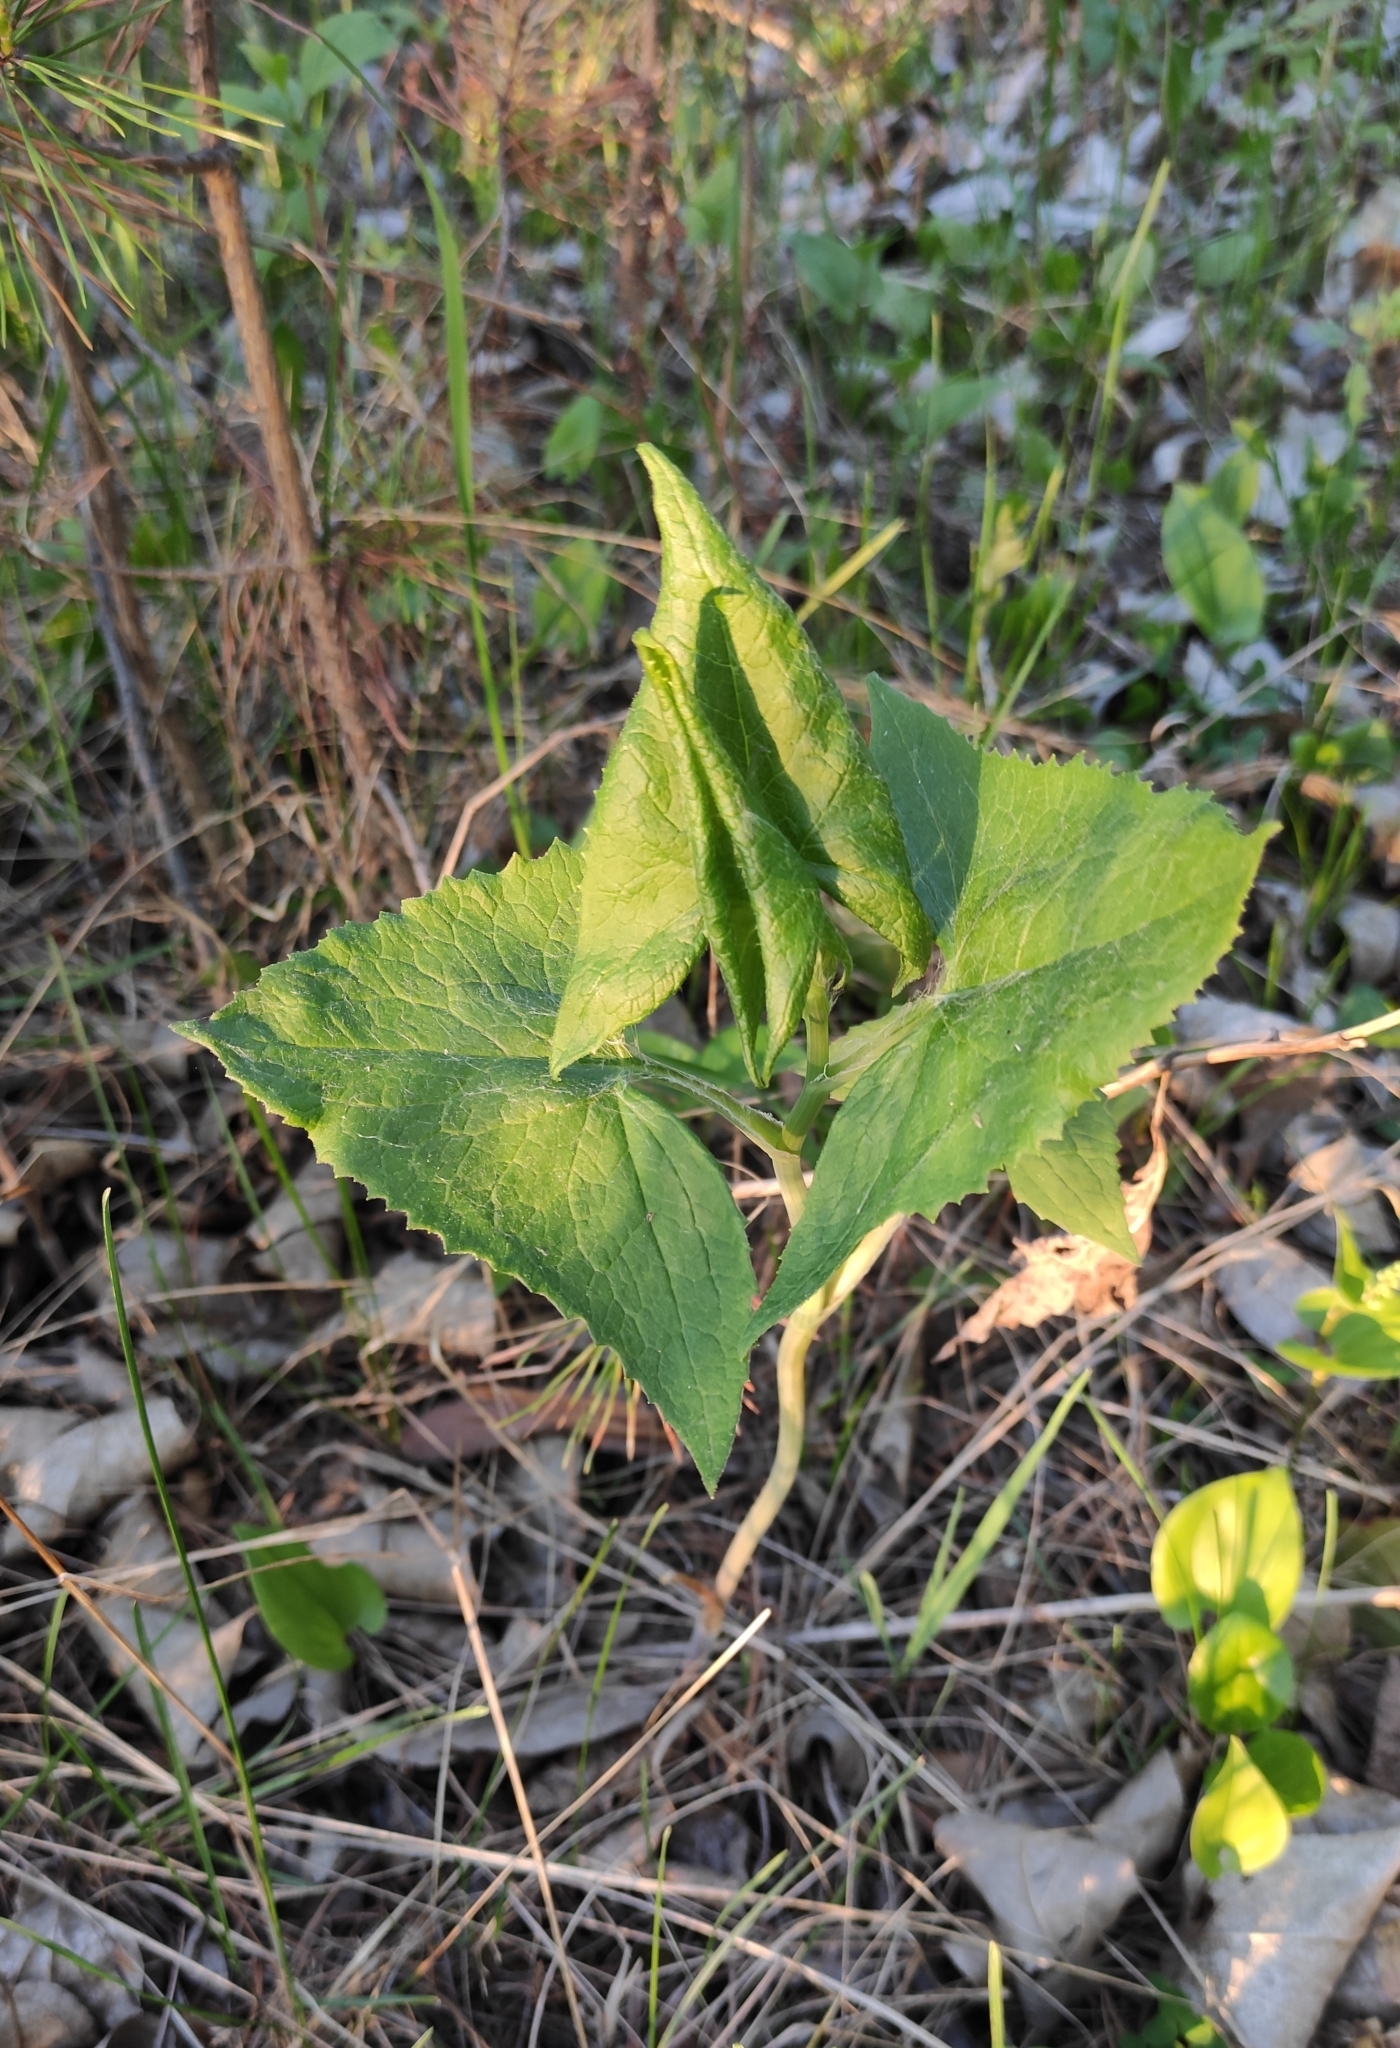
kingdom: Plantae
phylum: Tracheophyta
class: Magnoliopsida
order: Asterales
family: Asteraceae
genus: Parasenecio
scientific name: Parasenecio hastatus
